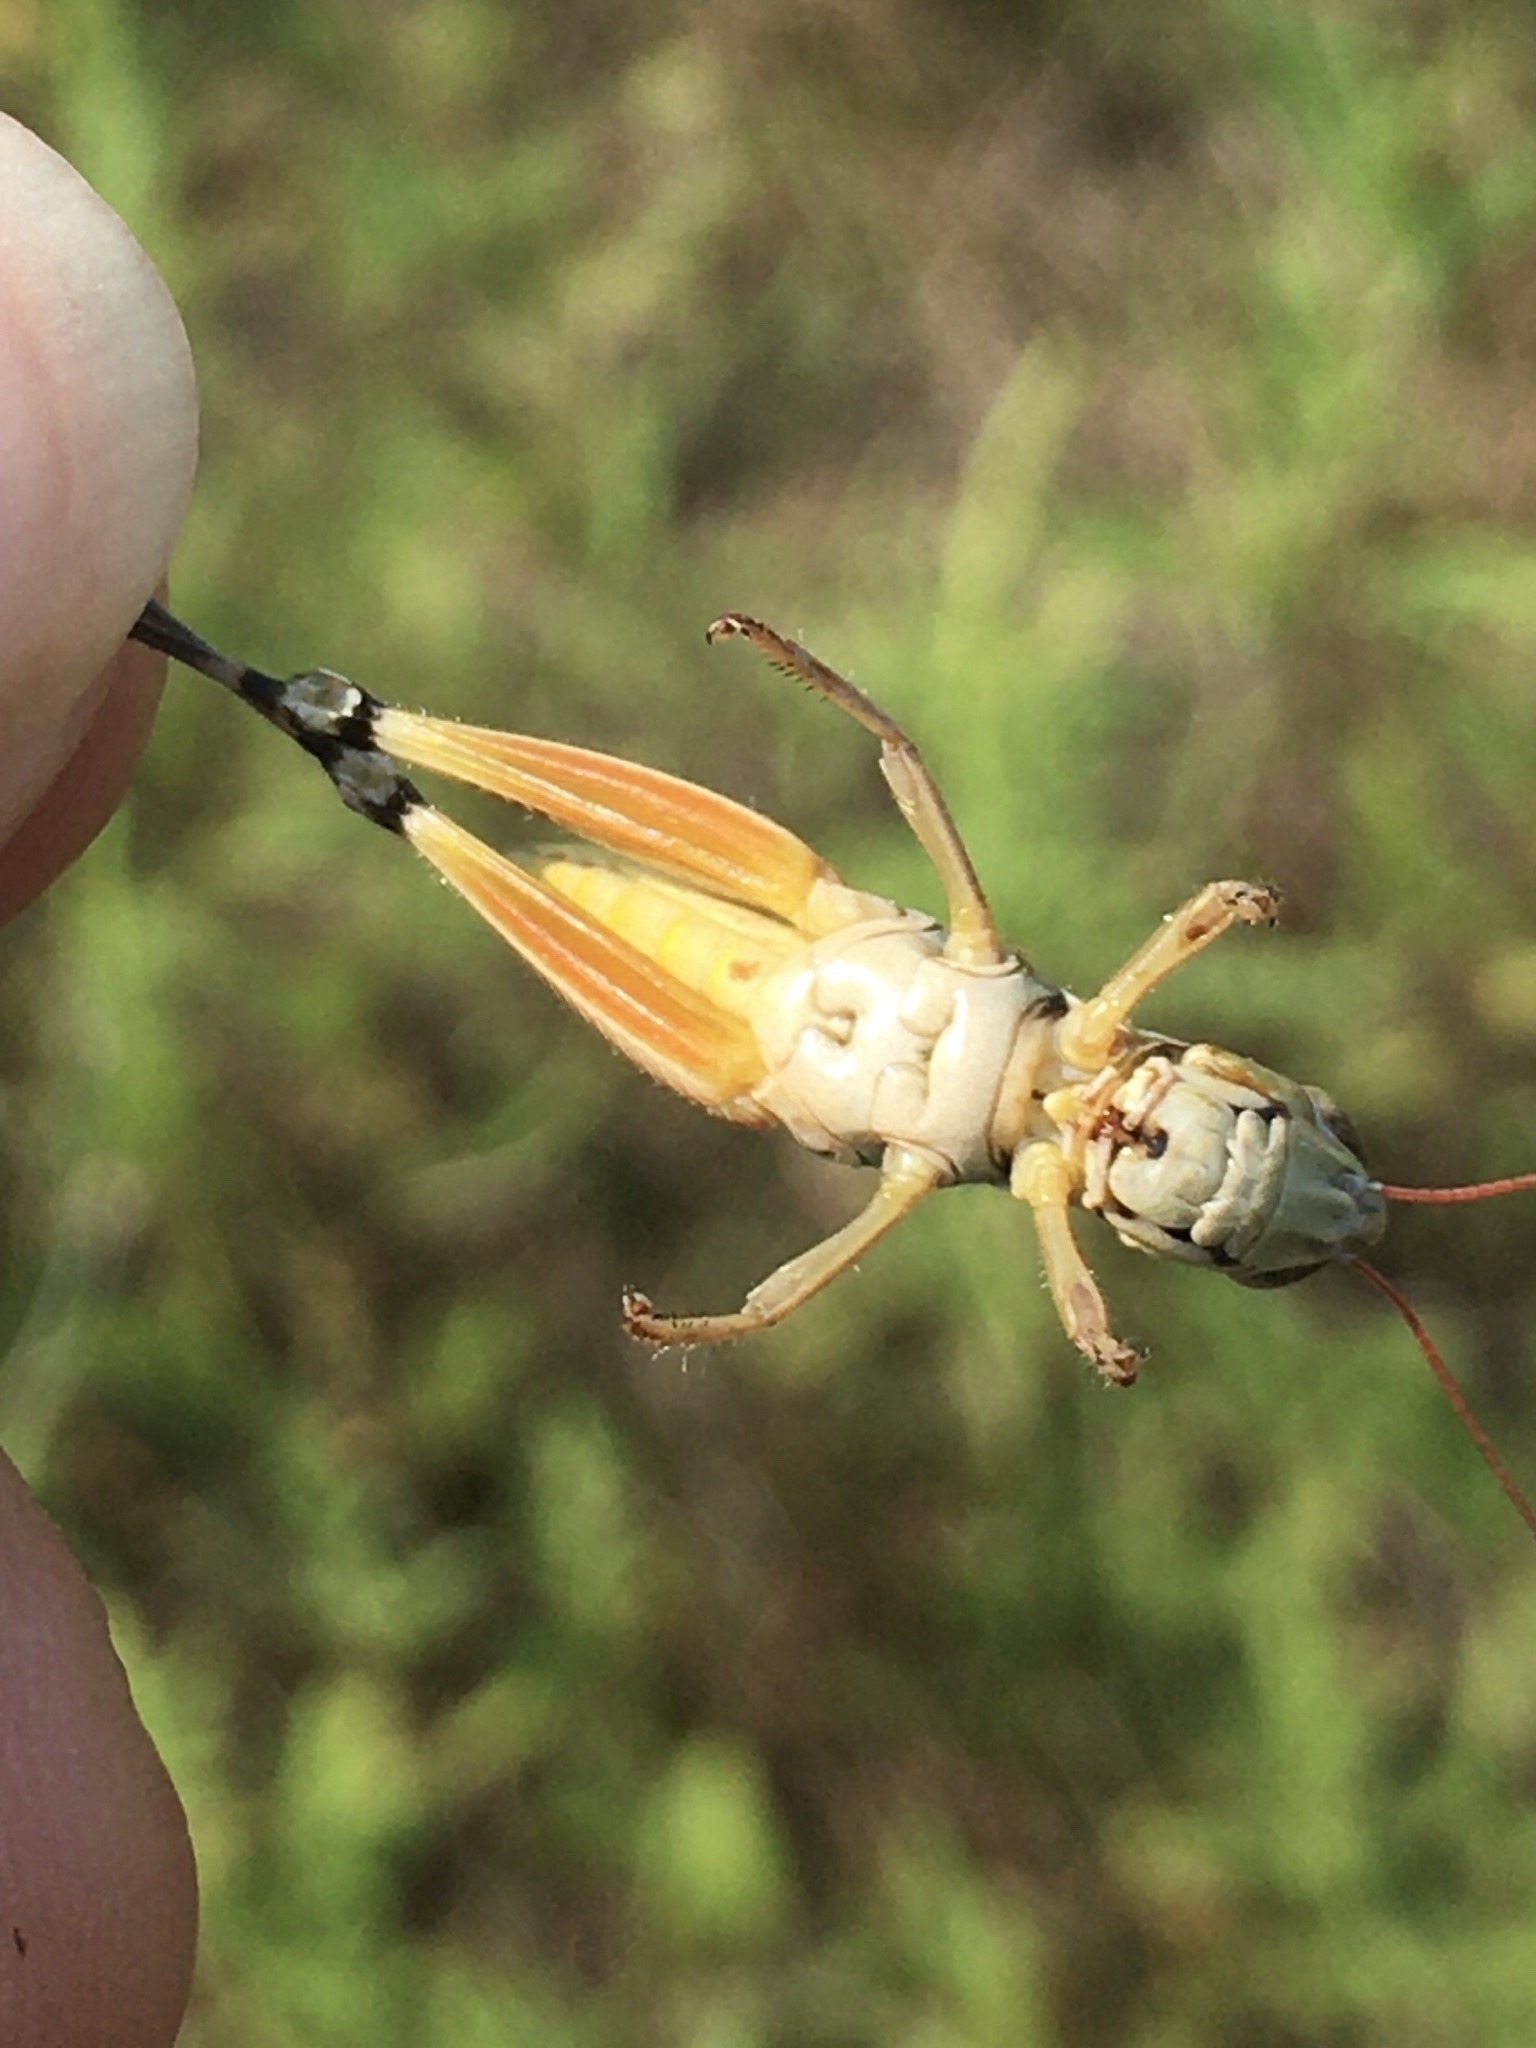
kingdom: Animalia
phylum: Arthropoda
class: Insecta
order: Orthoptera
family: Acrididae
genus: Phoetaliotes
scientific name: Phoetaliotes nebrascensis
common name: Large-headed grasshopper
